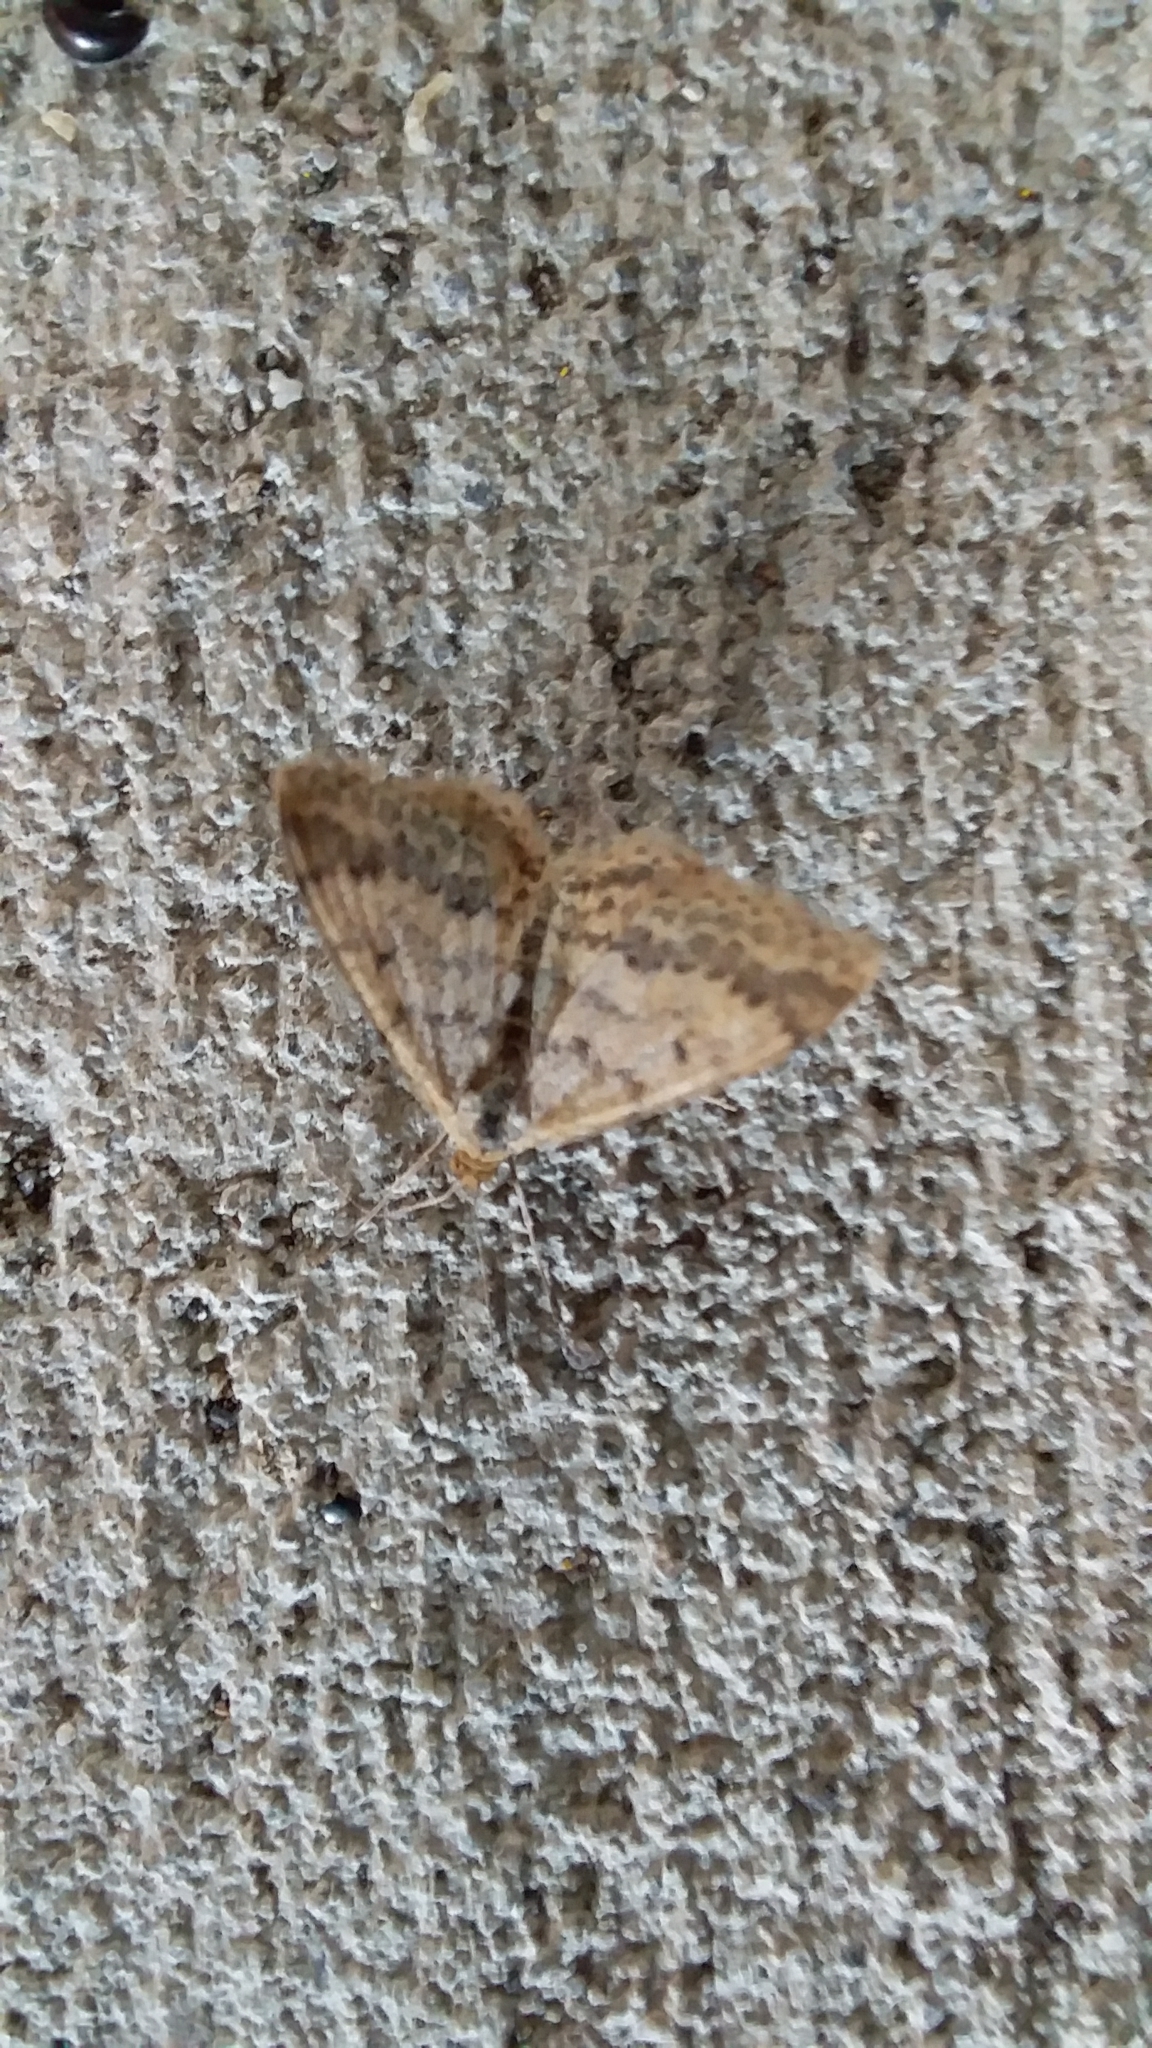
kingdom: Animalia
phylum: Arthropoda
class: Insecta
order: Lepidoptera
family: Geometridae
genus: Scopula
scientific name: Scopula rubraria
